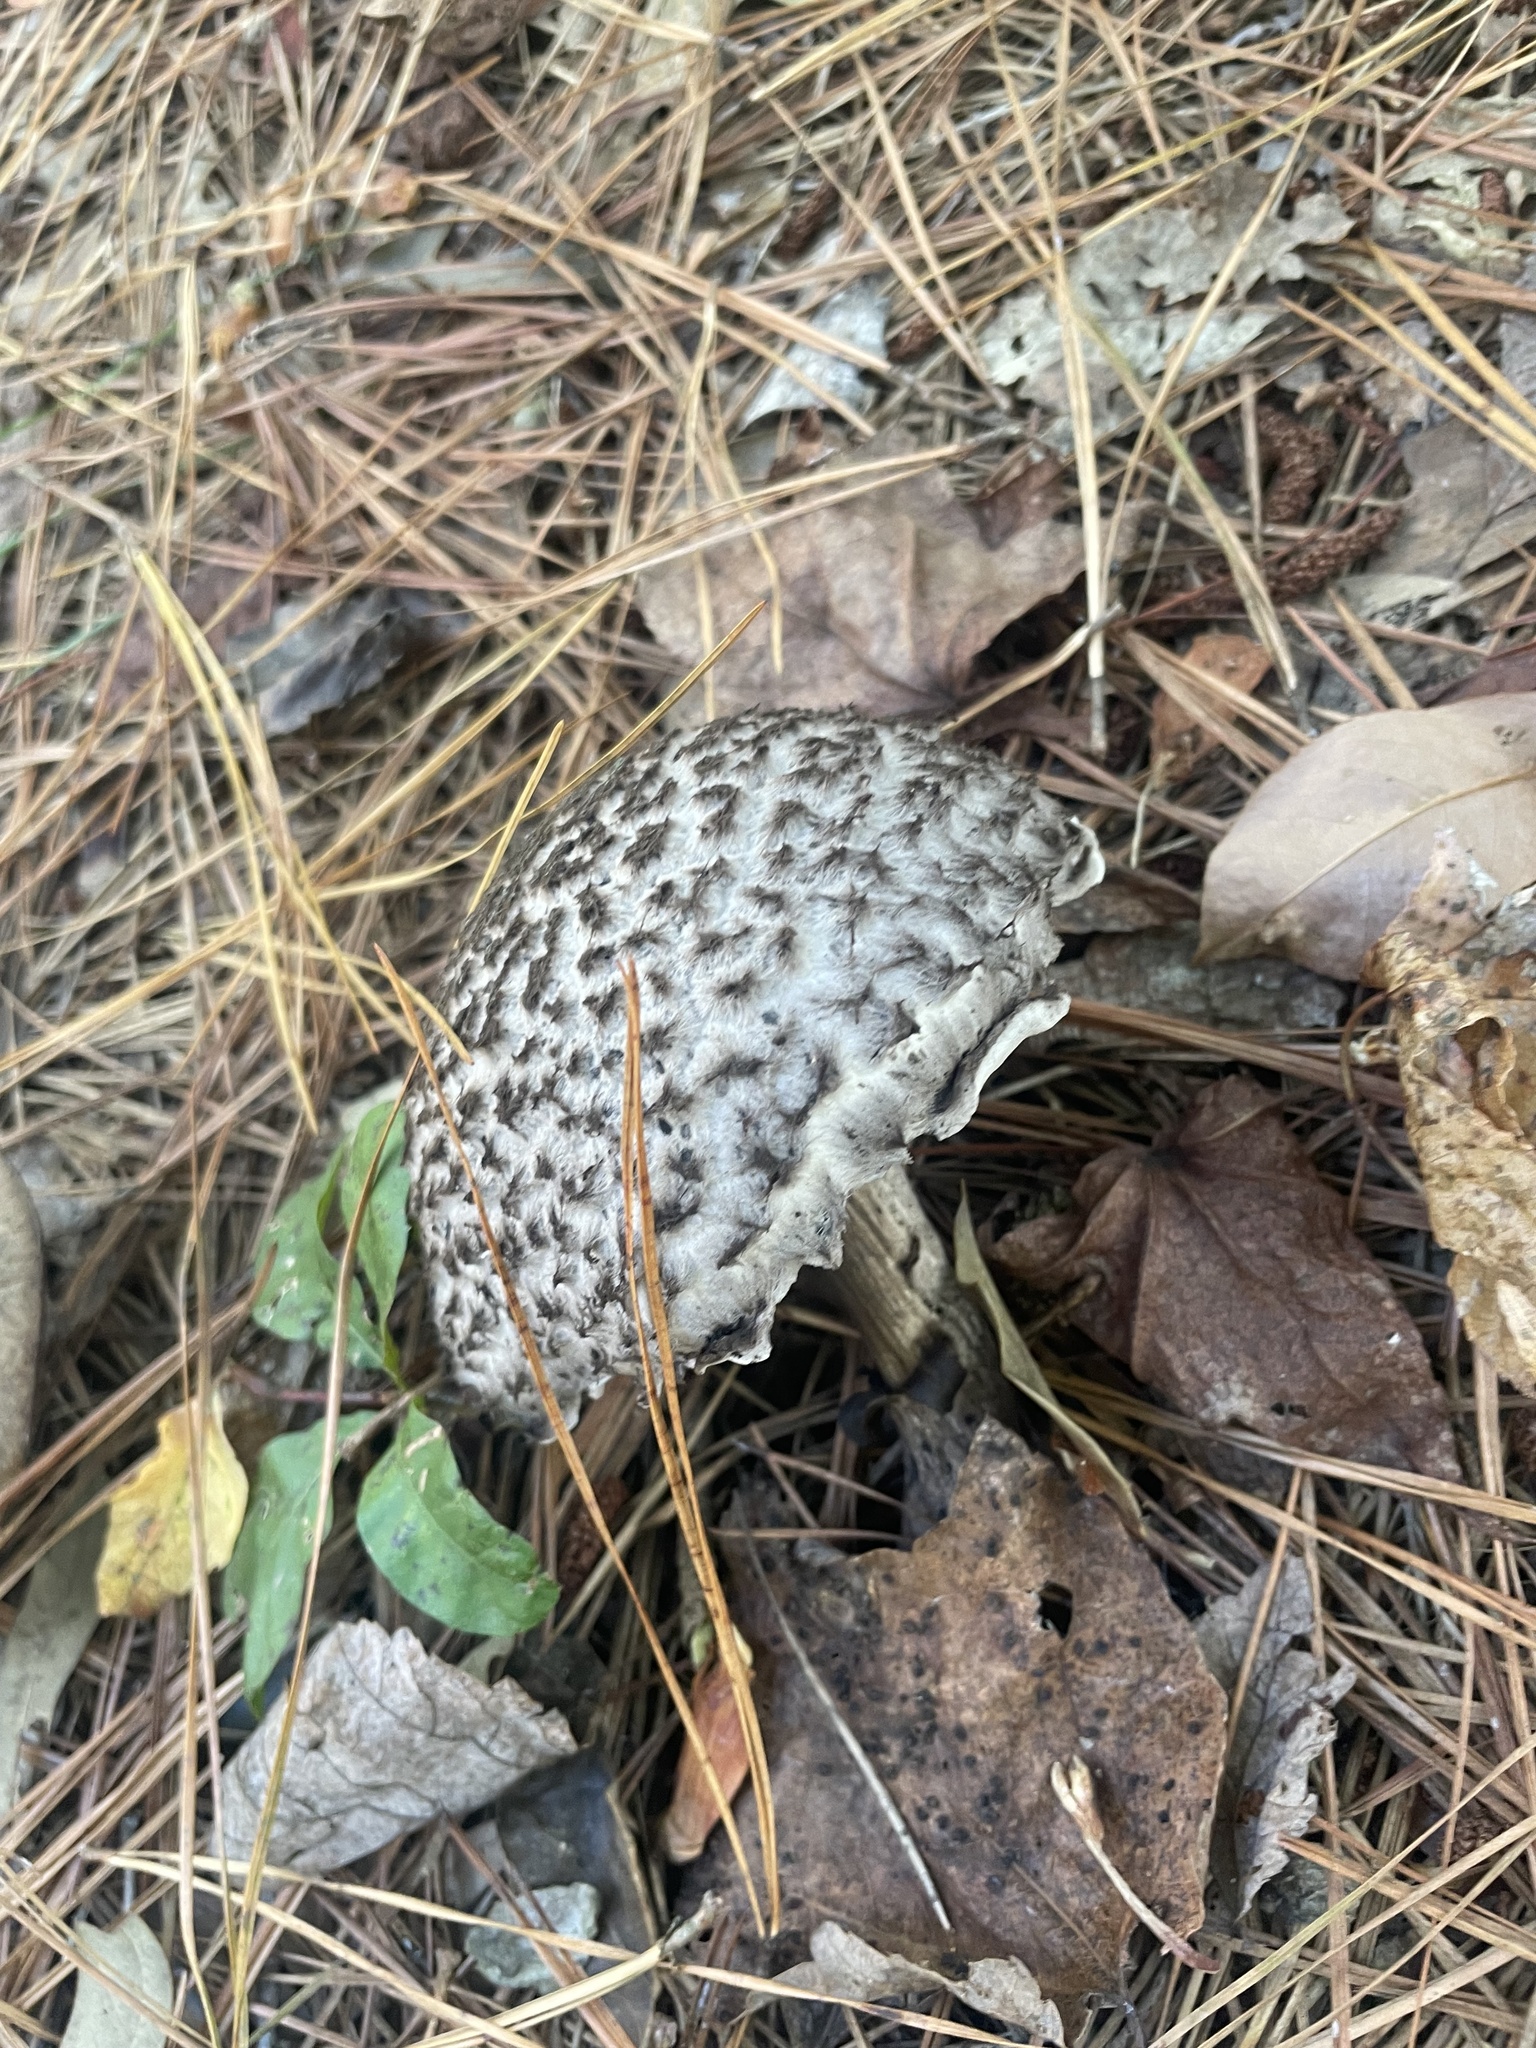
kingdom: Fungi
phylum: Basidiomycota
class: Agaricomycetes
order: Boletales
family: Boletaceae
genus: Strobilomyces
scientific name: Strobilomyces strobilaceus
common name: Old man of the woods
